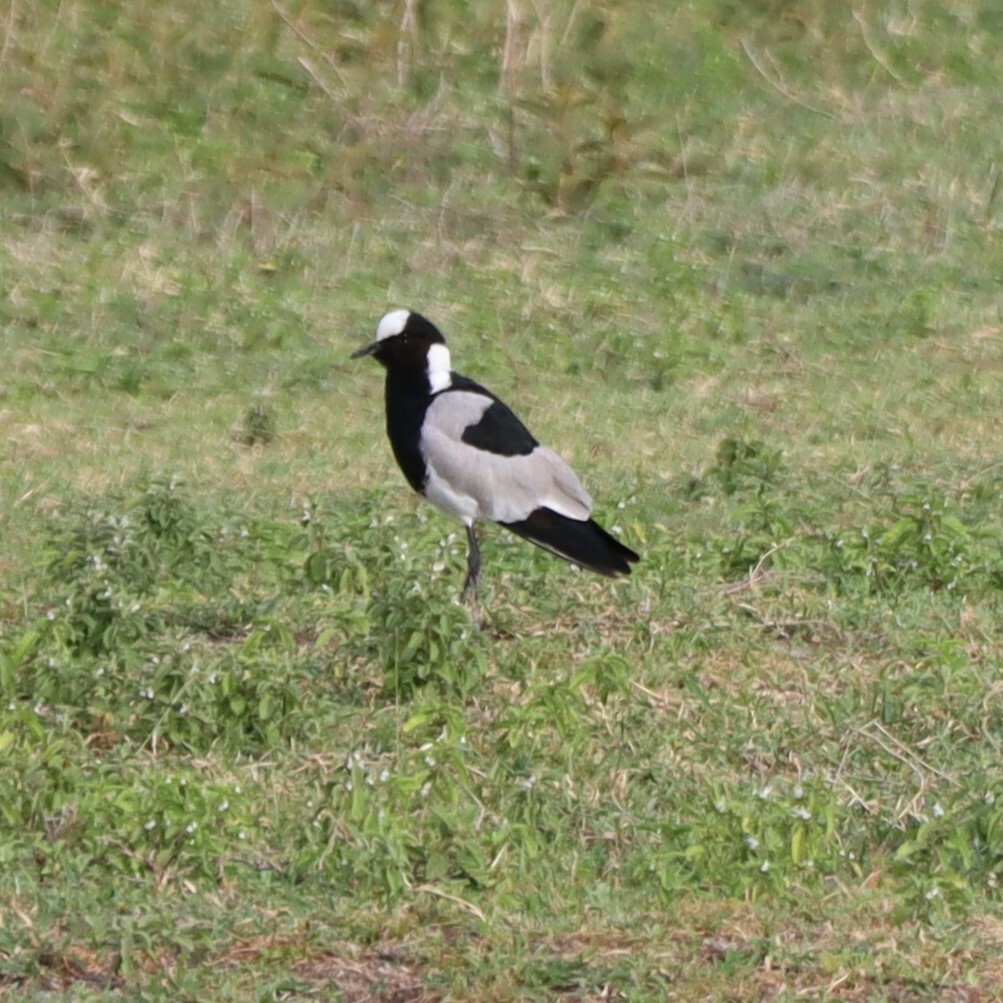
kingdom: Animalia
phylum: Chordata
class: Aves
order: Charadriiformes
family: Charadriidae
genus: Vanellus
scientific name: Vanellus armatus
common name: Blacksmith lapwing
